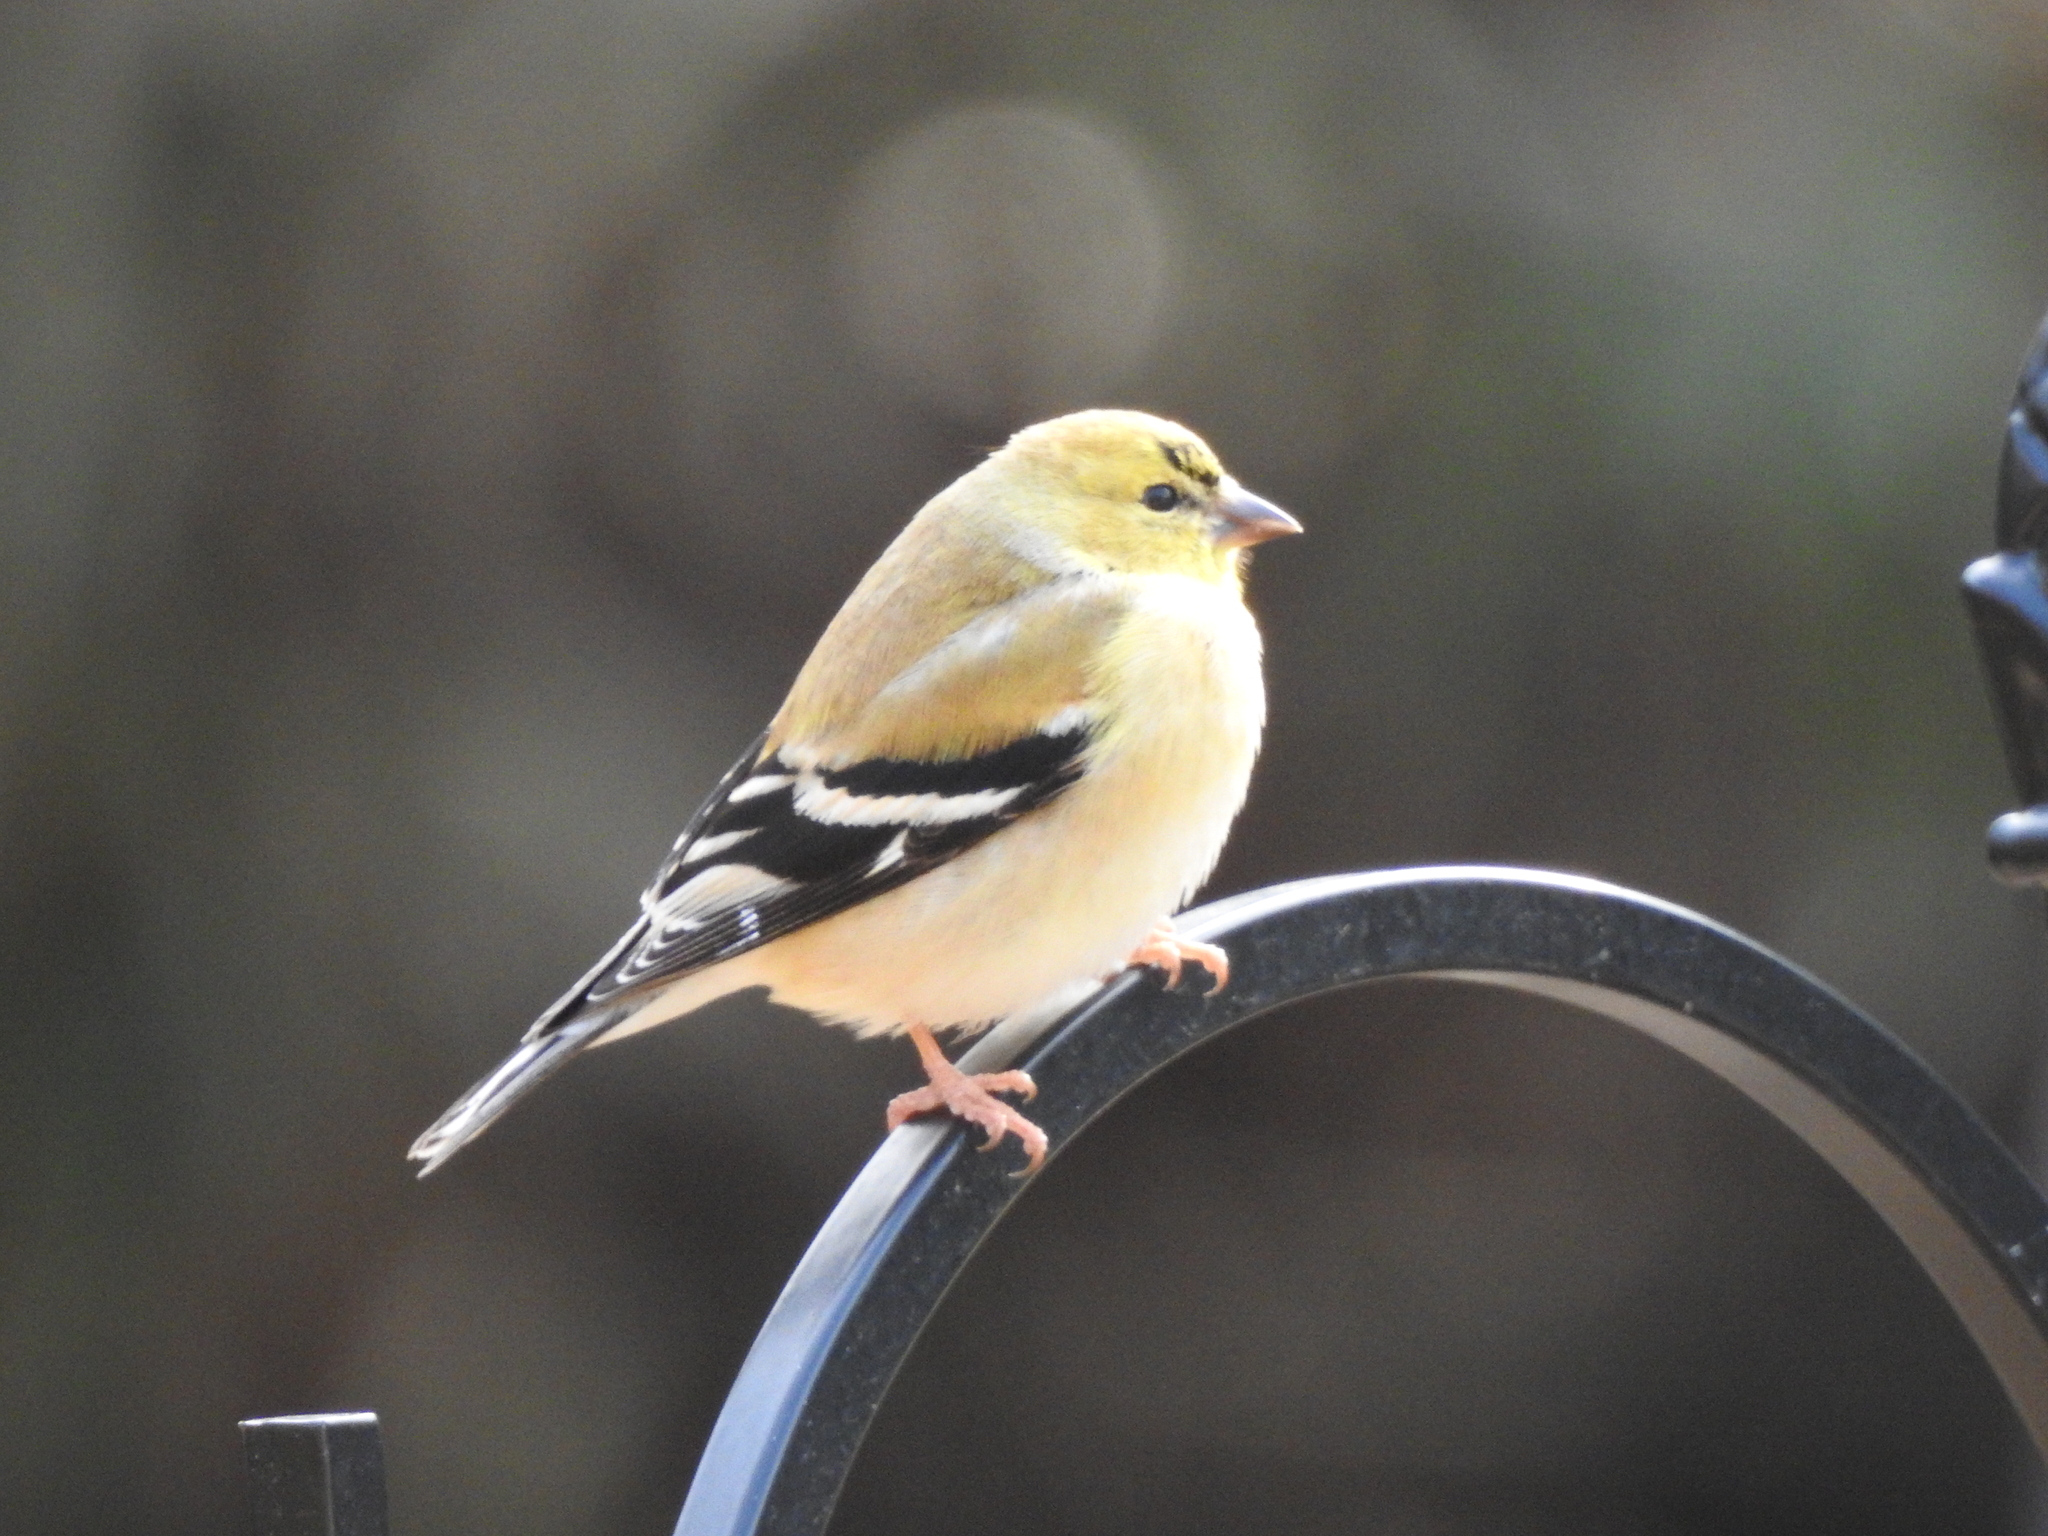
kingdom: Animalia
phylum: Chordata
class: Aves
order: Passeriformes
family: Fringillidae
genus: Spinus
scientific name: Spinus tristis
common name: American goldfinch
